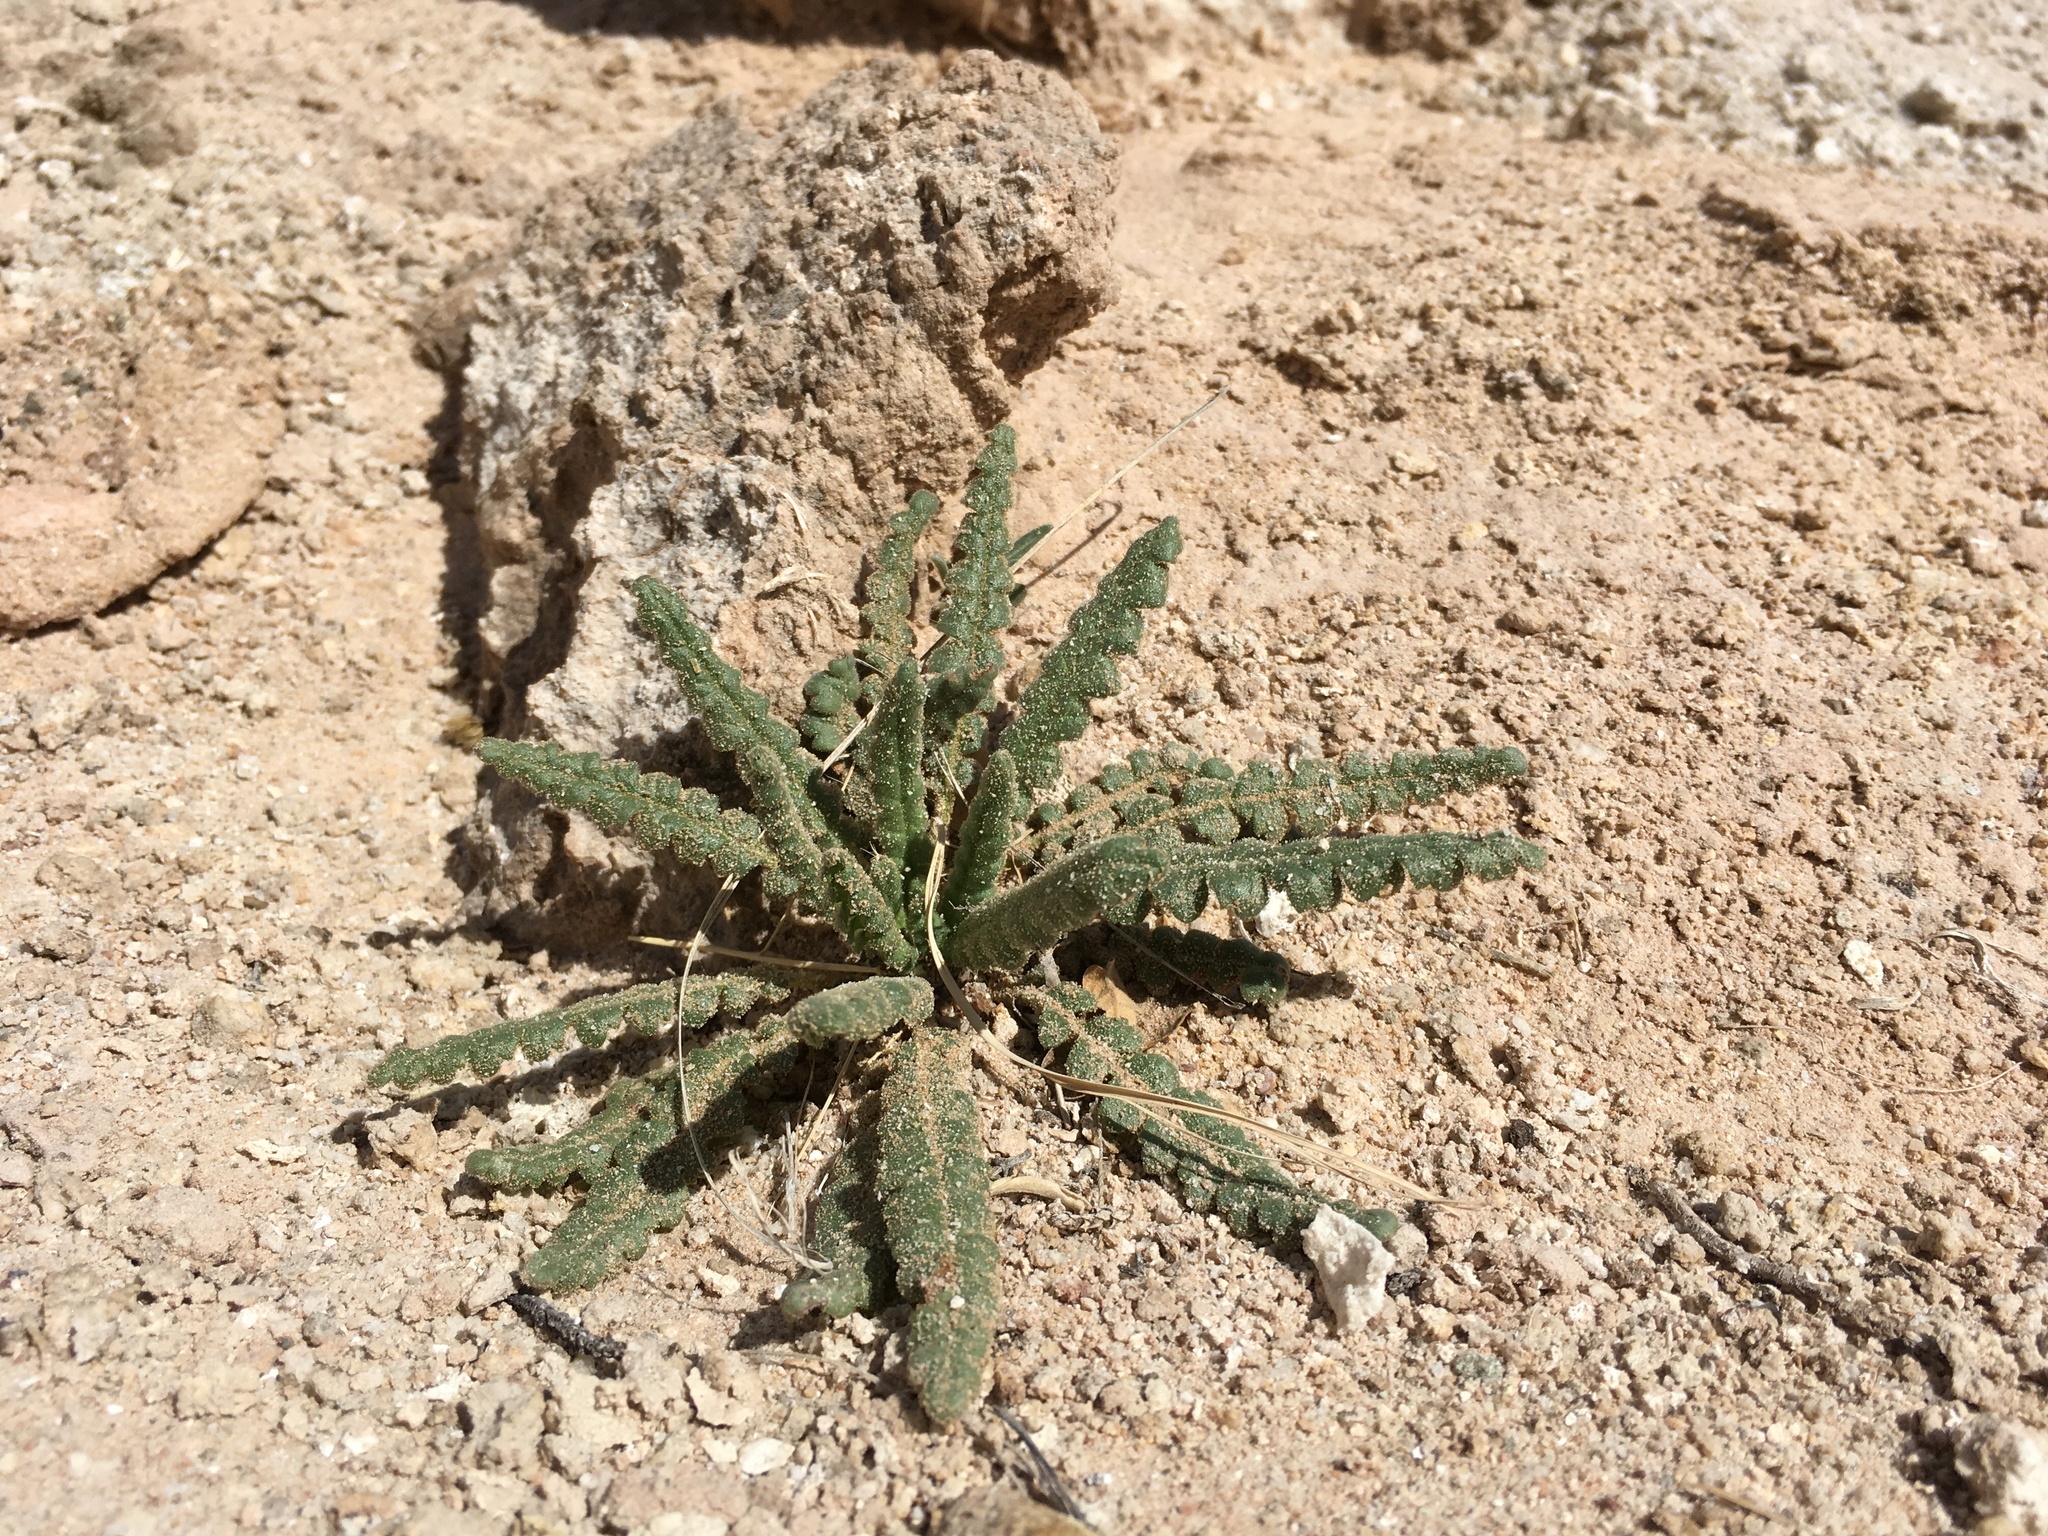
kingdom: Plantae
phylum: Tracheophyta
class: Magnoliopsida
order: Boraginales
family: Hydrophyllaceae
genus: Phacelia
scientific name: Phacelia sivinskii
